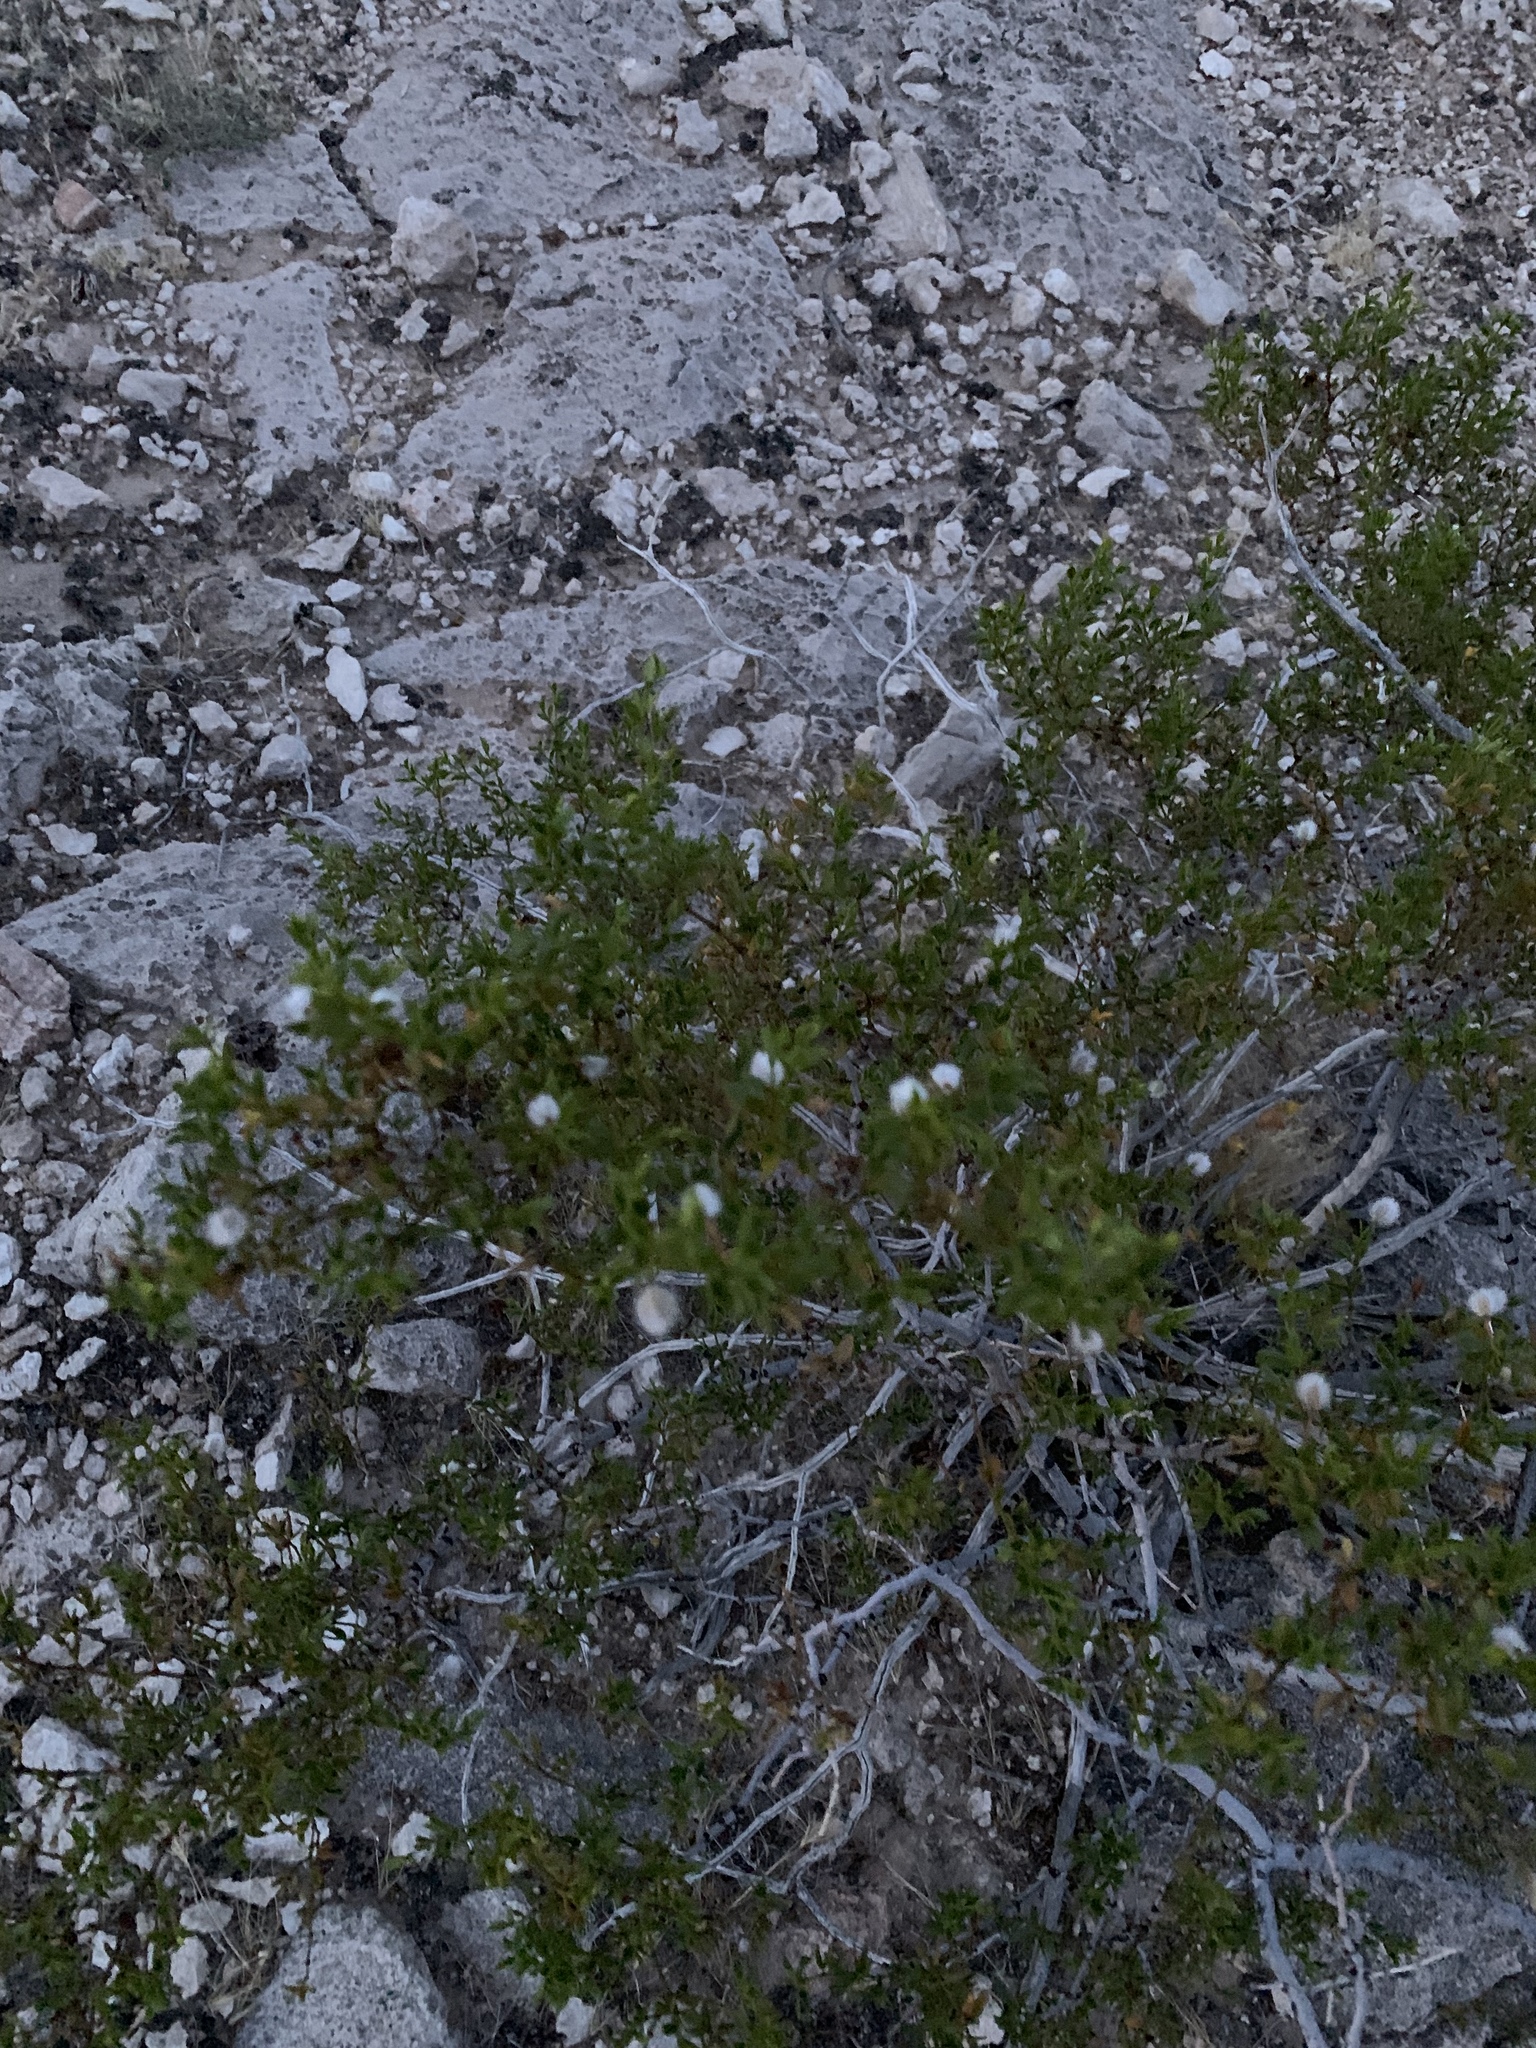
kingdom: Plantae
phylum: Tracheophyta
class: Magnoliopsida
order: Zygophyllales
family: Zygophyllaceae
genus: Larrea
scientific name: Larrea tridentata
